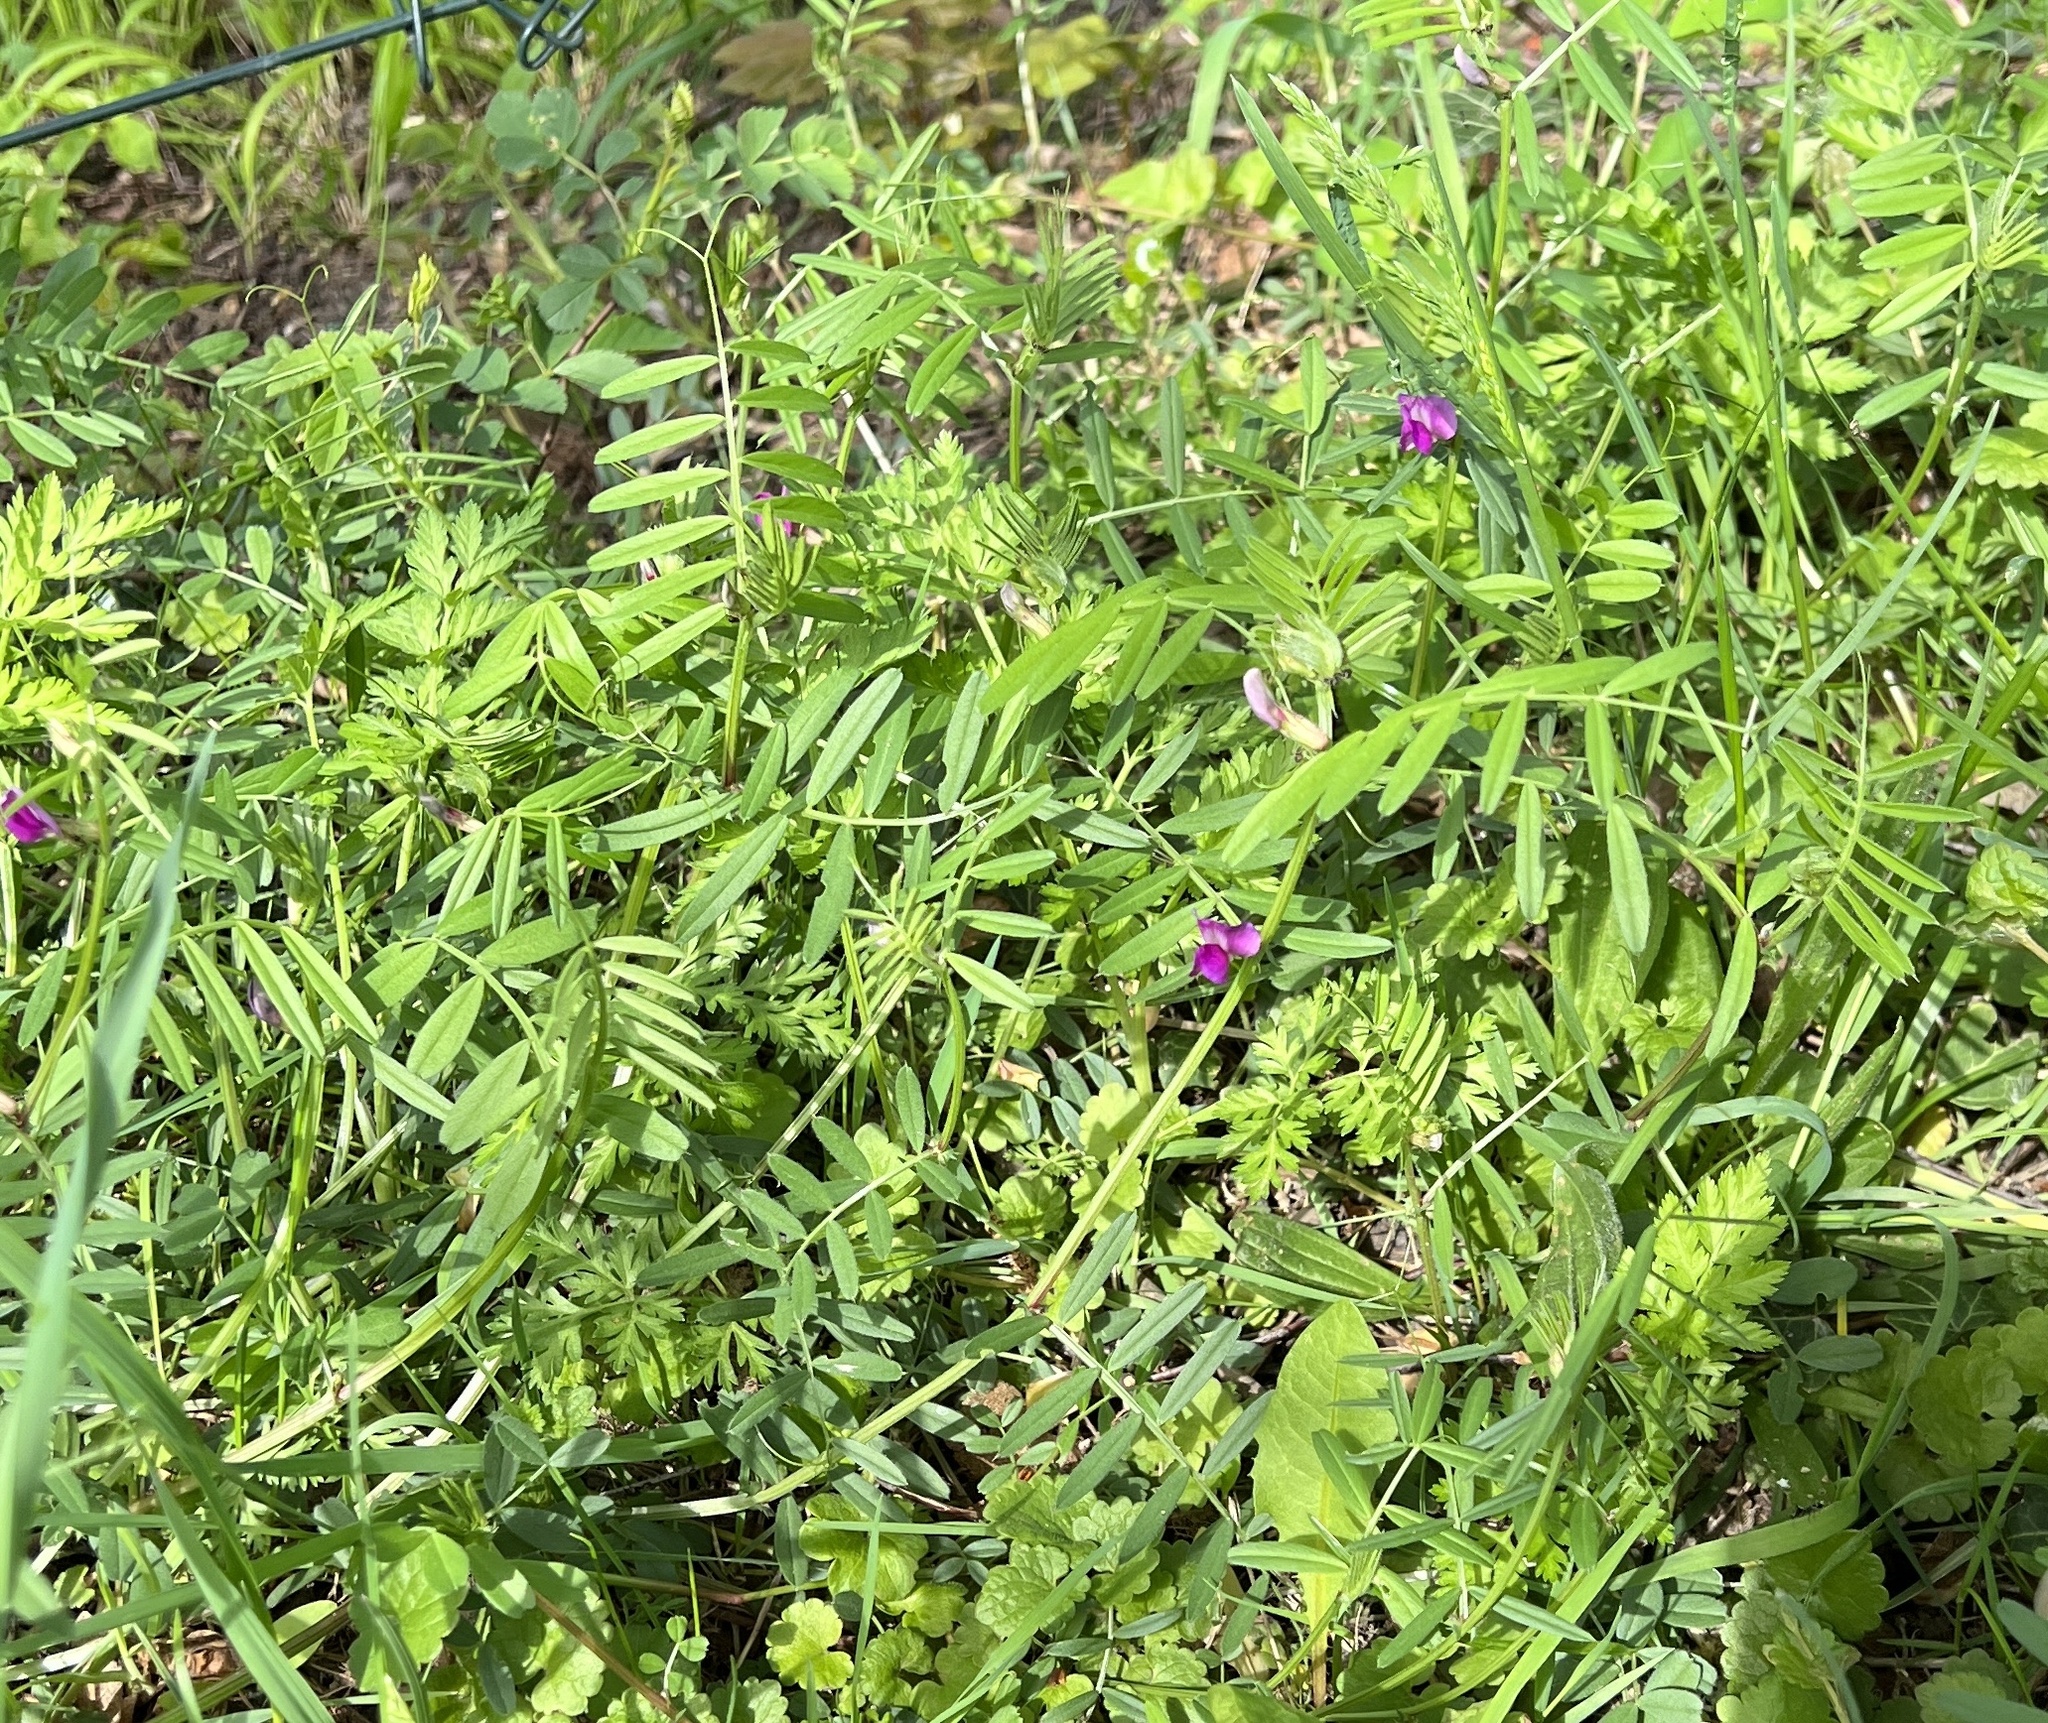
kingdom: Plantae
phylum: Tracheophyta
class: Magnoliopsida
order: Fabales
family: Fabaceae
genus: Vicia
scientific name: Vicia sativa
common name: Garden vetch
